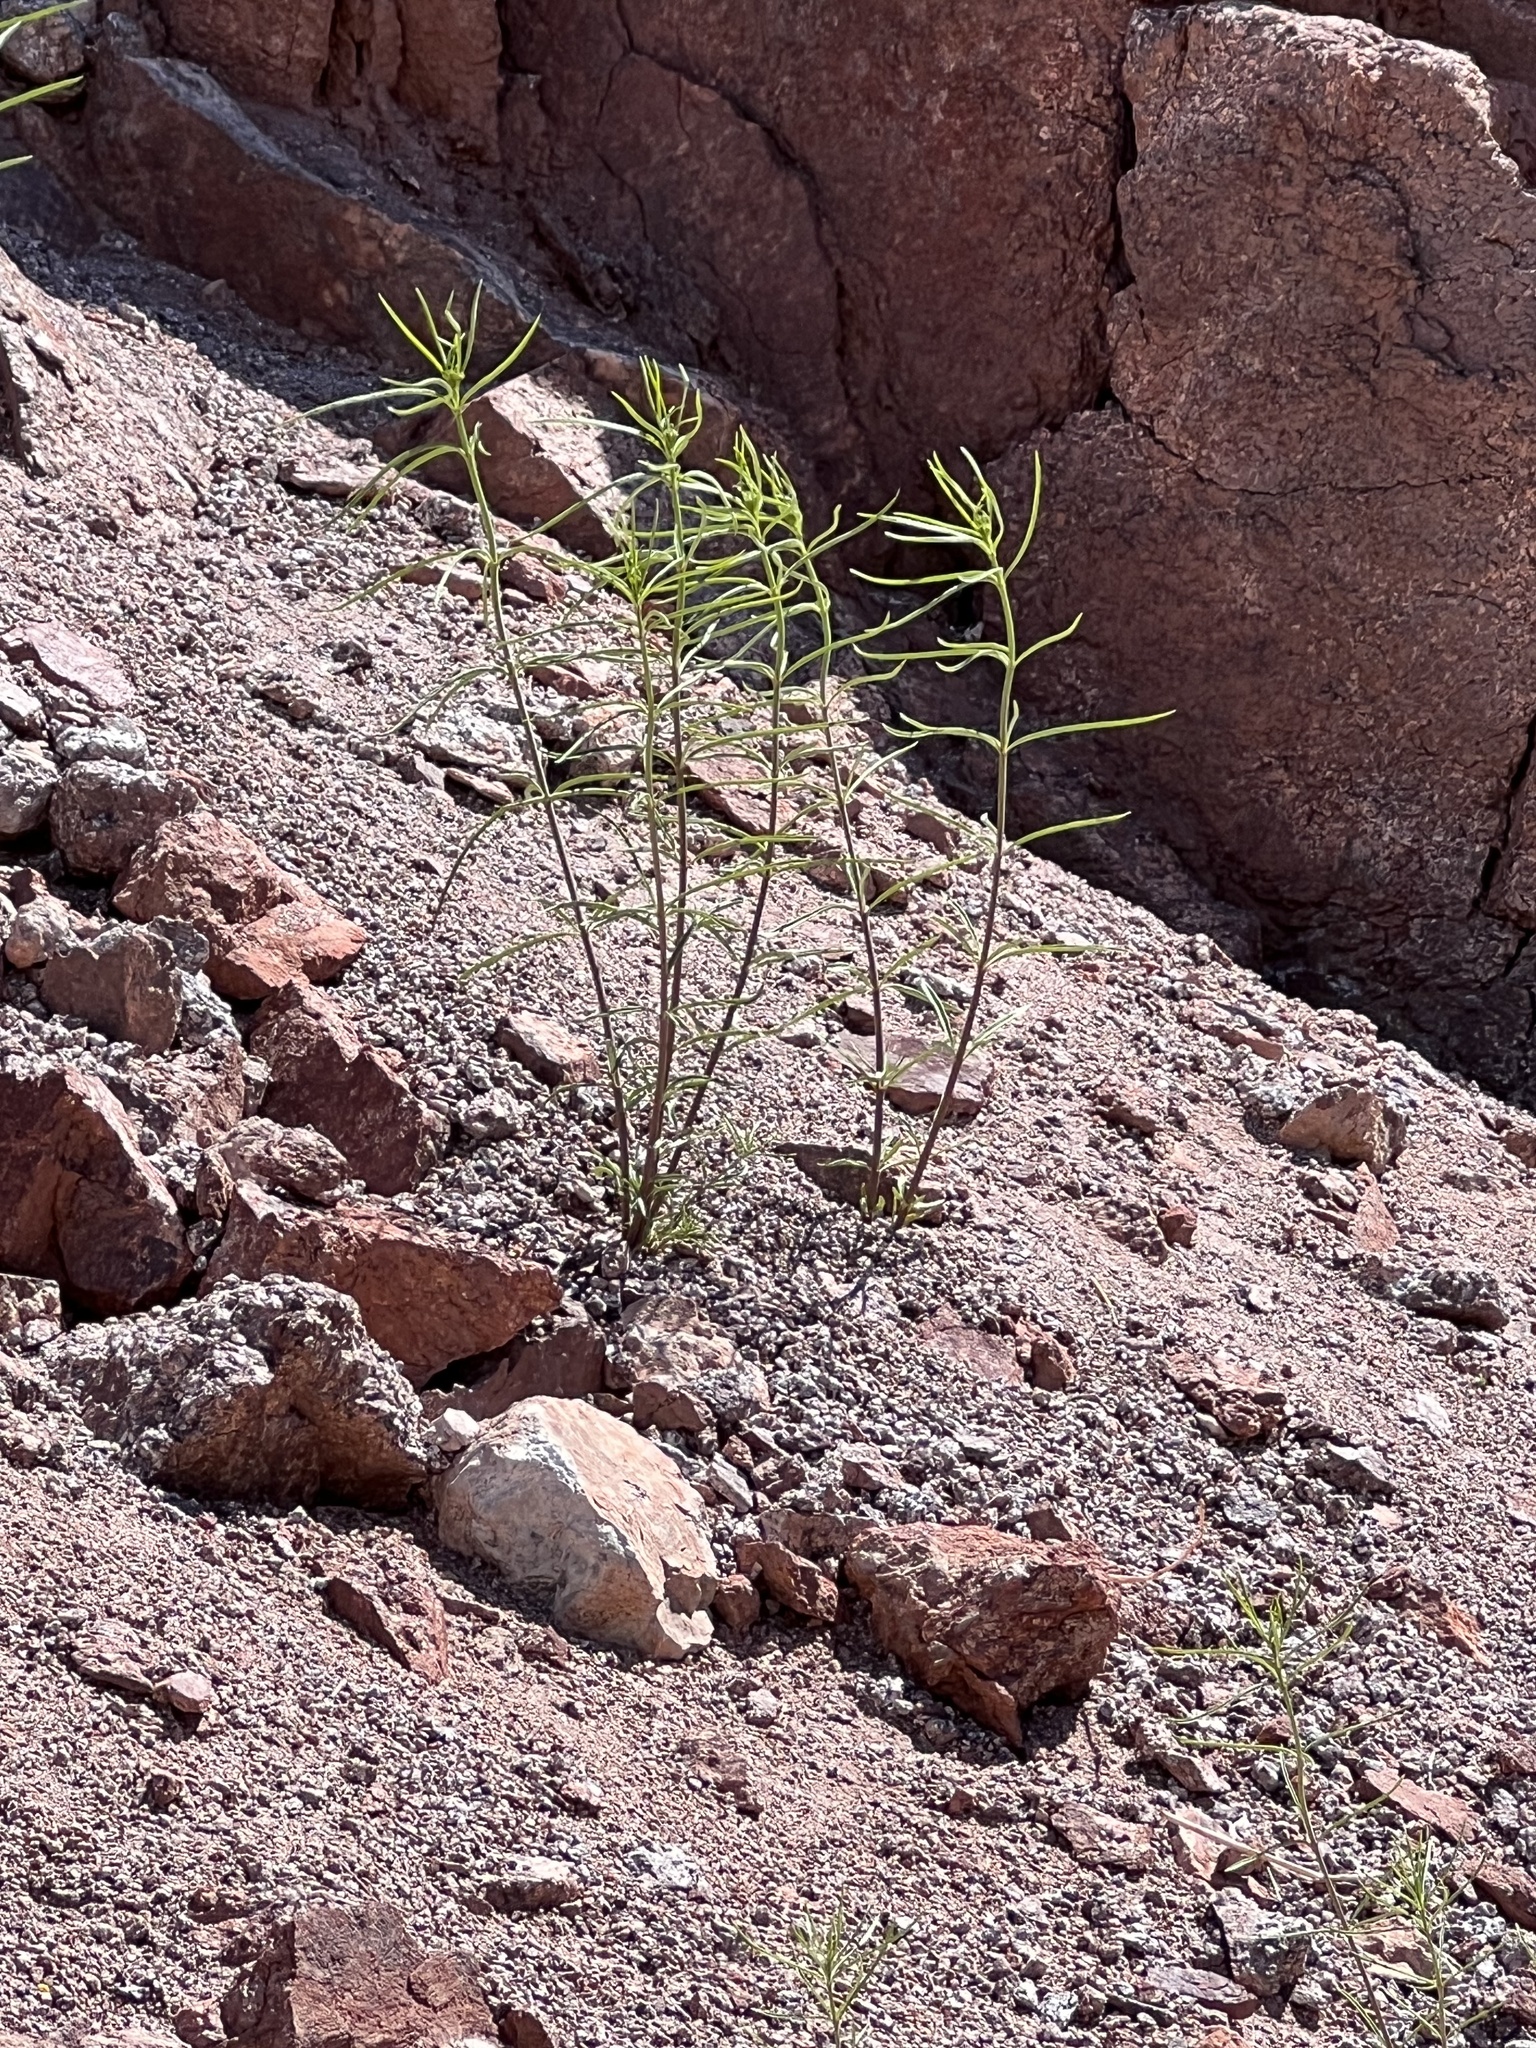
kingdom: Plantae
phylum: Tracheophyta
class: Magnoliopsida
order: Gentianales
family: Apocynaceae
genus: Asclepias
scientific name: Asclepias fascicularis
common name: Mexican milkweed
